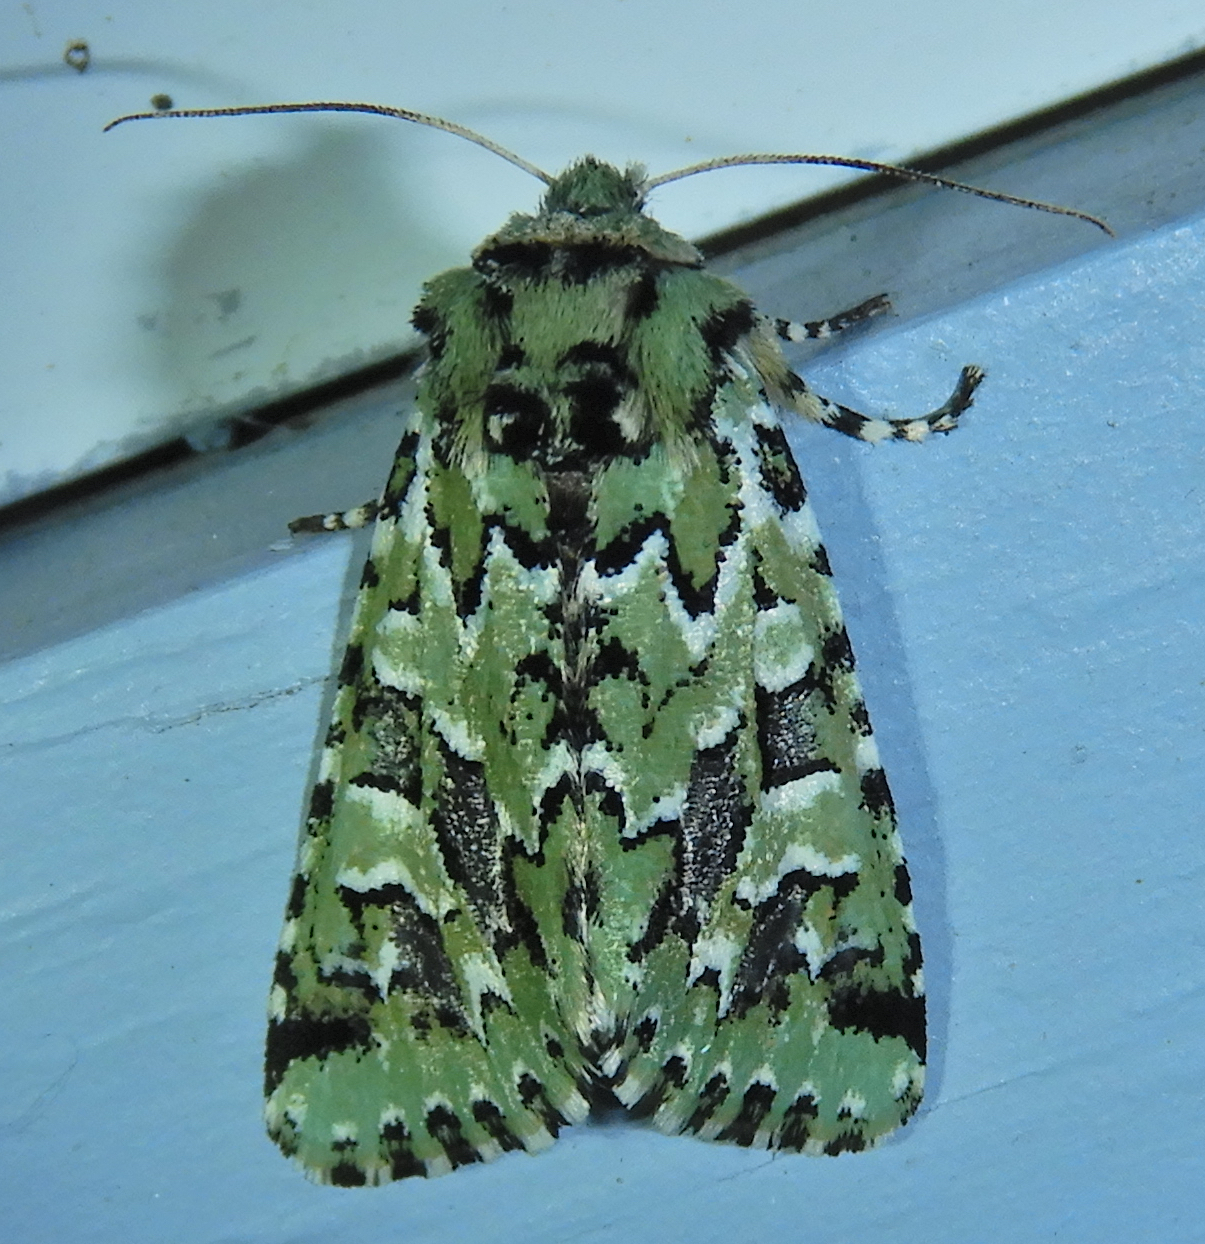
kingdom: Animalia
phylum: Arthropoda
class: Insecta
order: Lepidoptera
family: Noctuidae
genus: Feralia
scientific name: Feralia jocosa
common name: Joker
